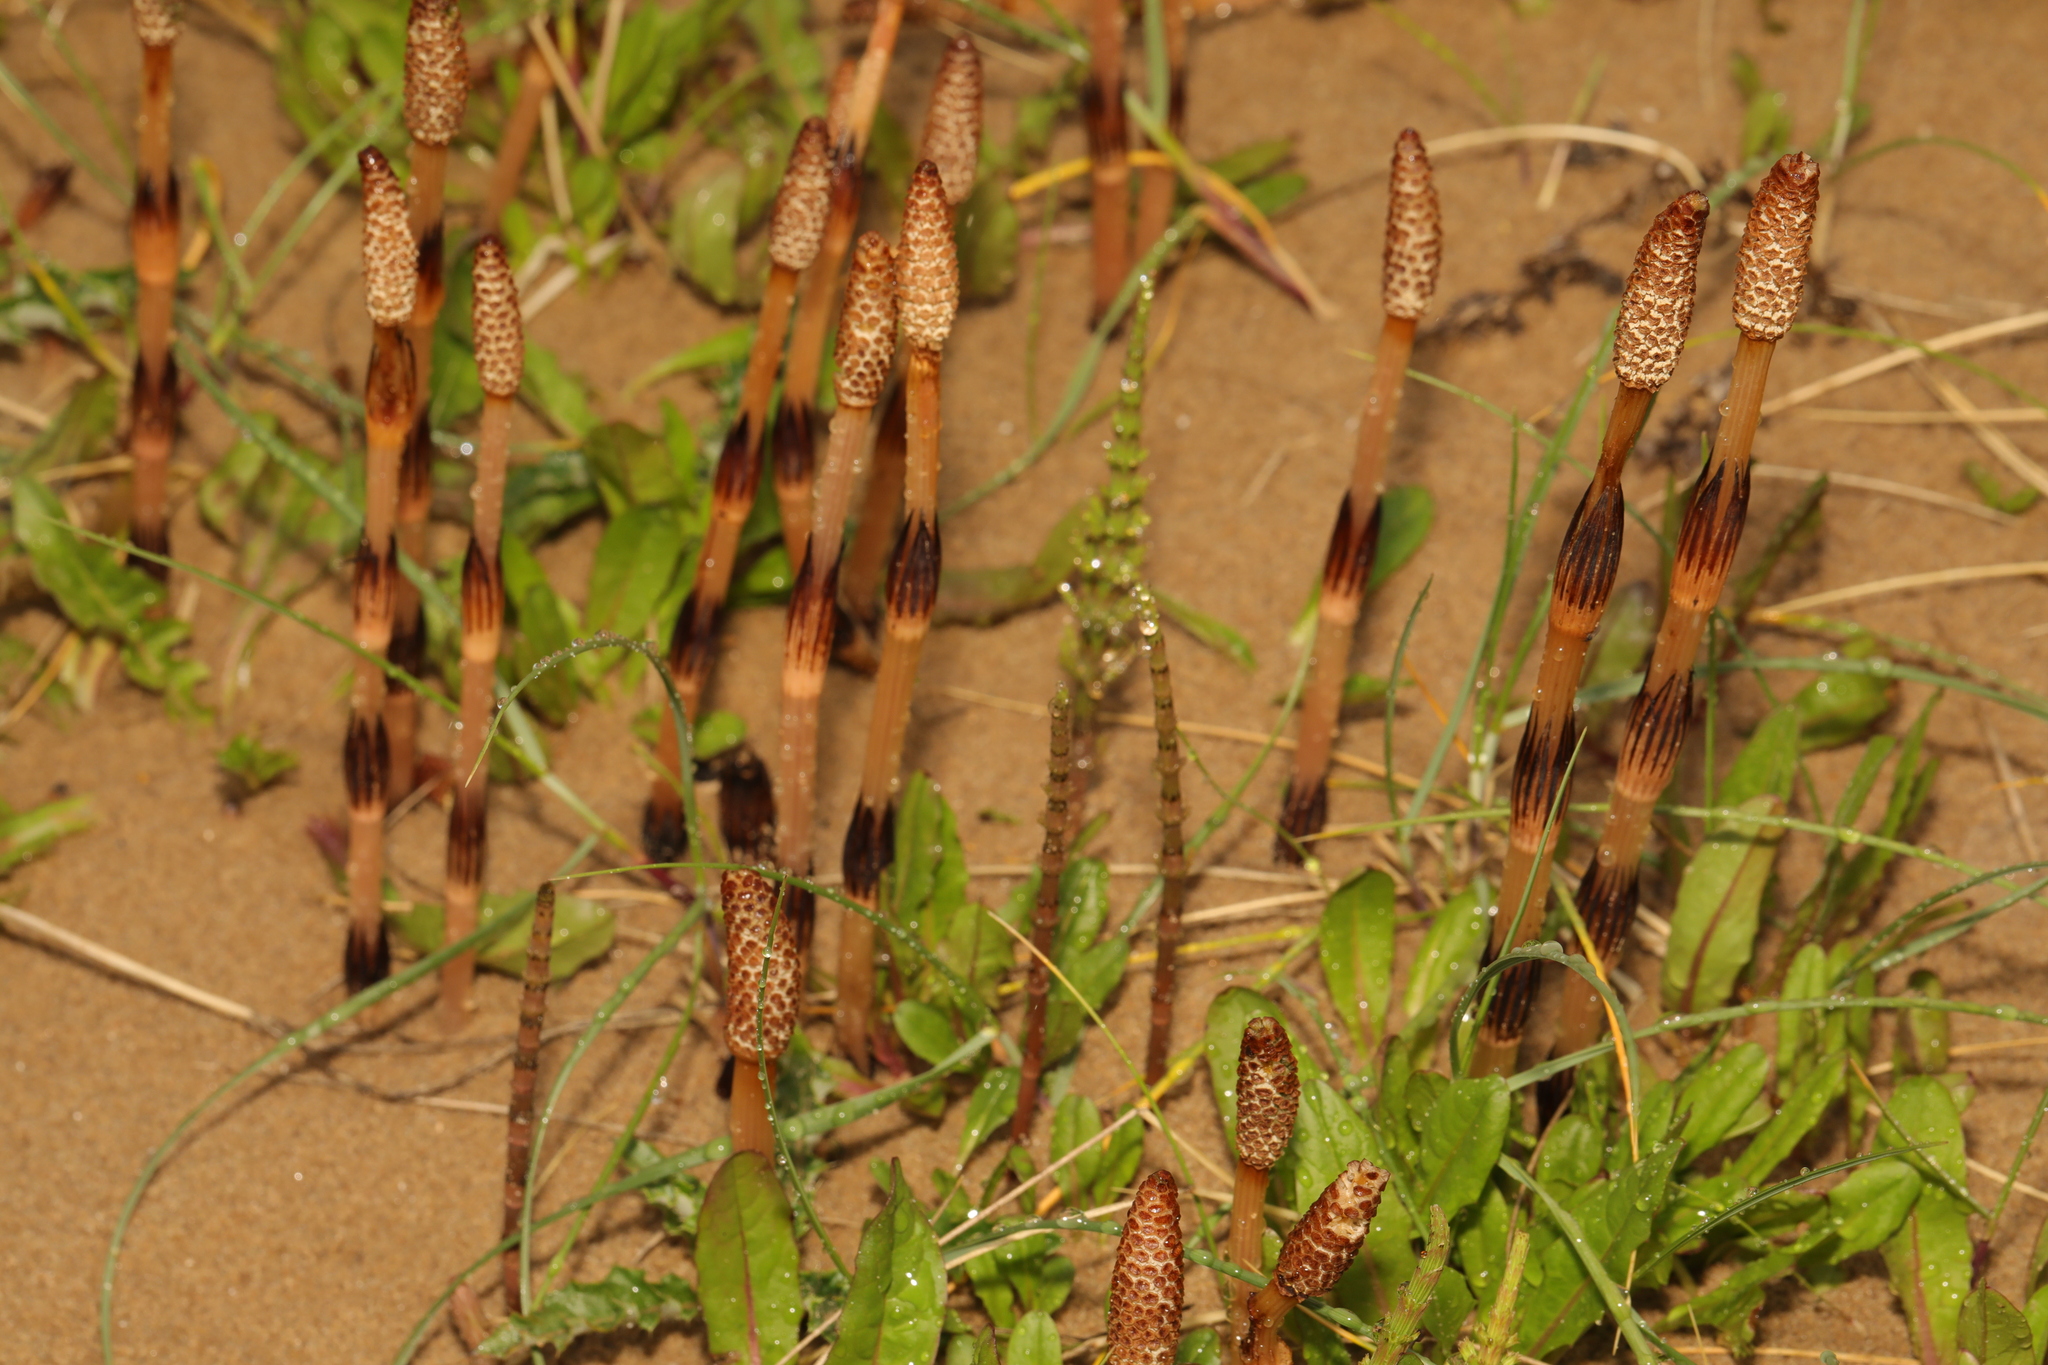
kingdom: Plantae
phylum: Tracheophyta
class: Polypodiopsida
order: Equisetales
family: Equisetaceae
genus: Equisetum
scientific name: Equisetum arvense
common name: Field horsetail
